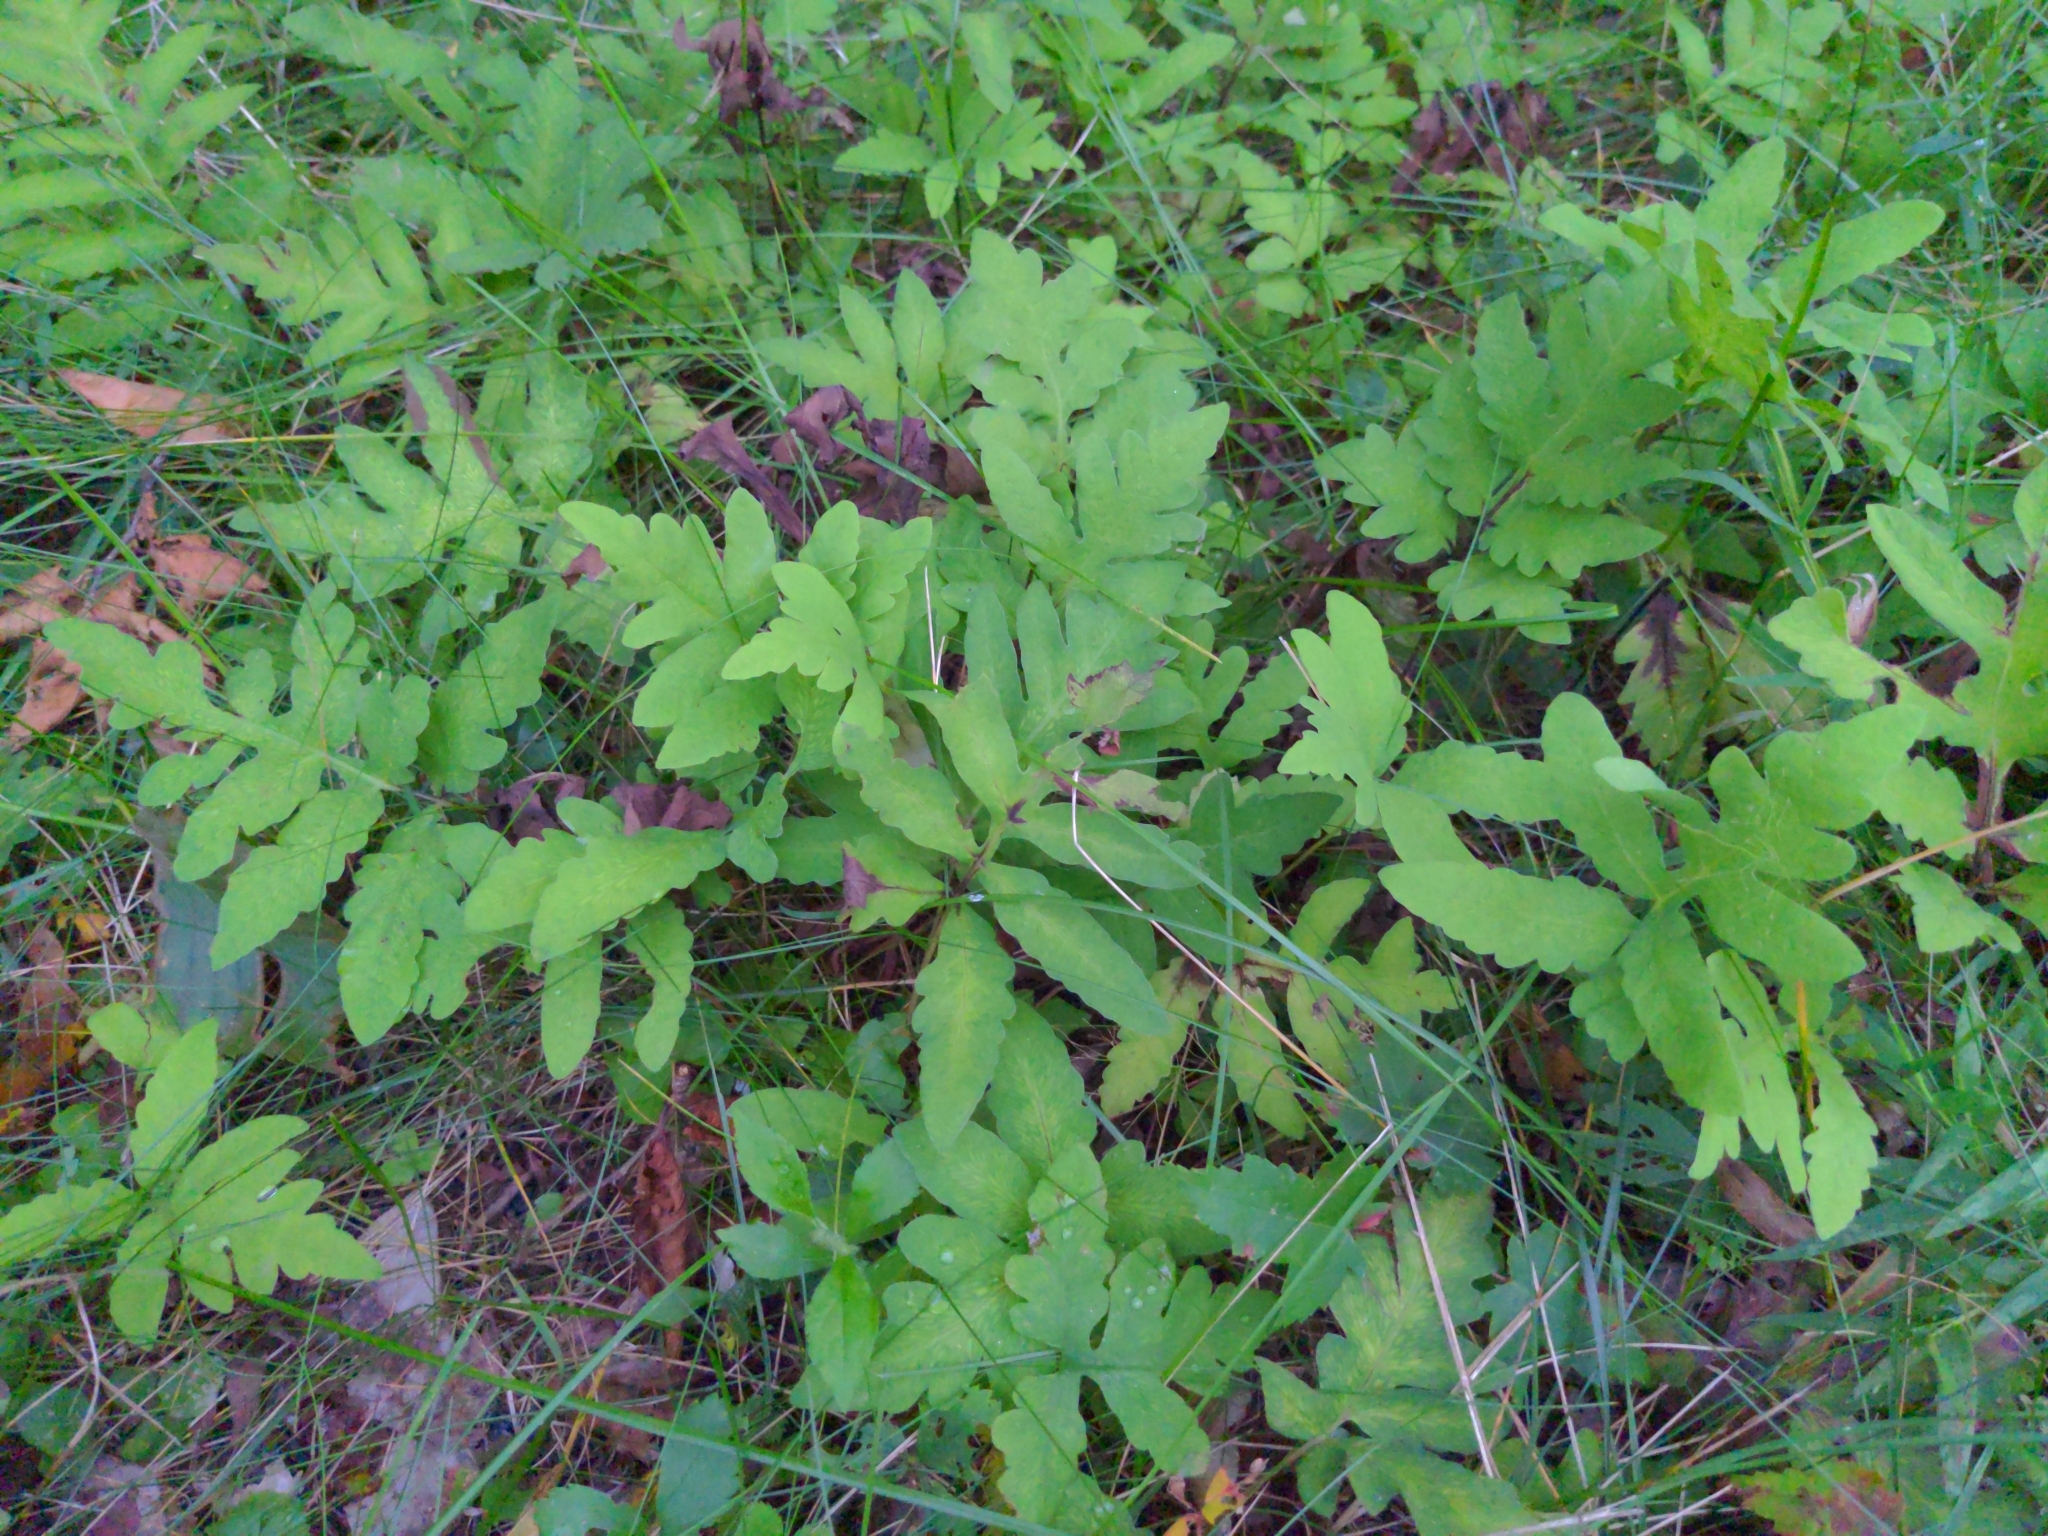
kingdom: Plantae
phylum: Tracheophyta
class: Polypodiopsida
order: Polypodiales
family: Onocleaceae
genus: Onoclea
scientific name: Onoclea sensibilis
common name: Sensitive fern
